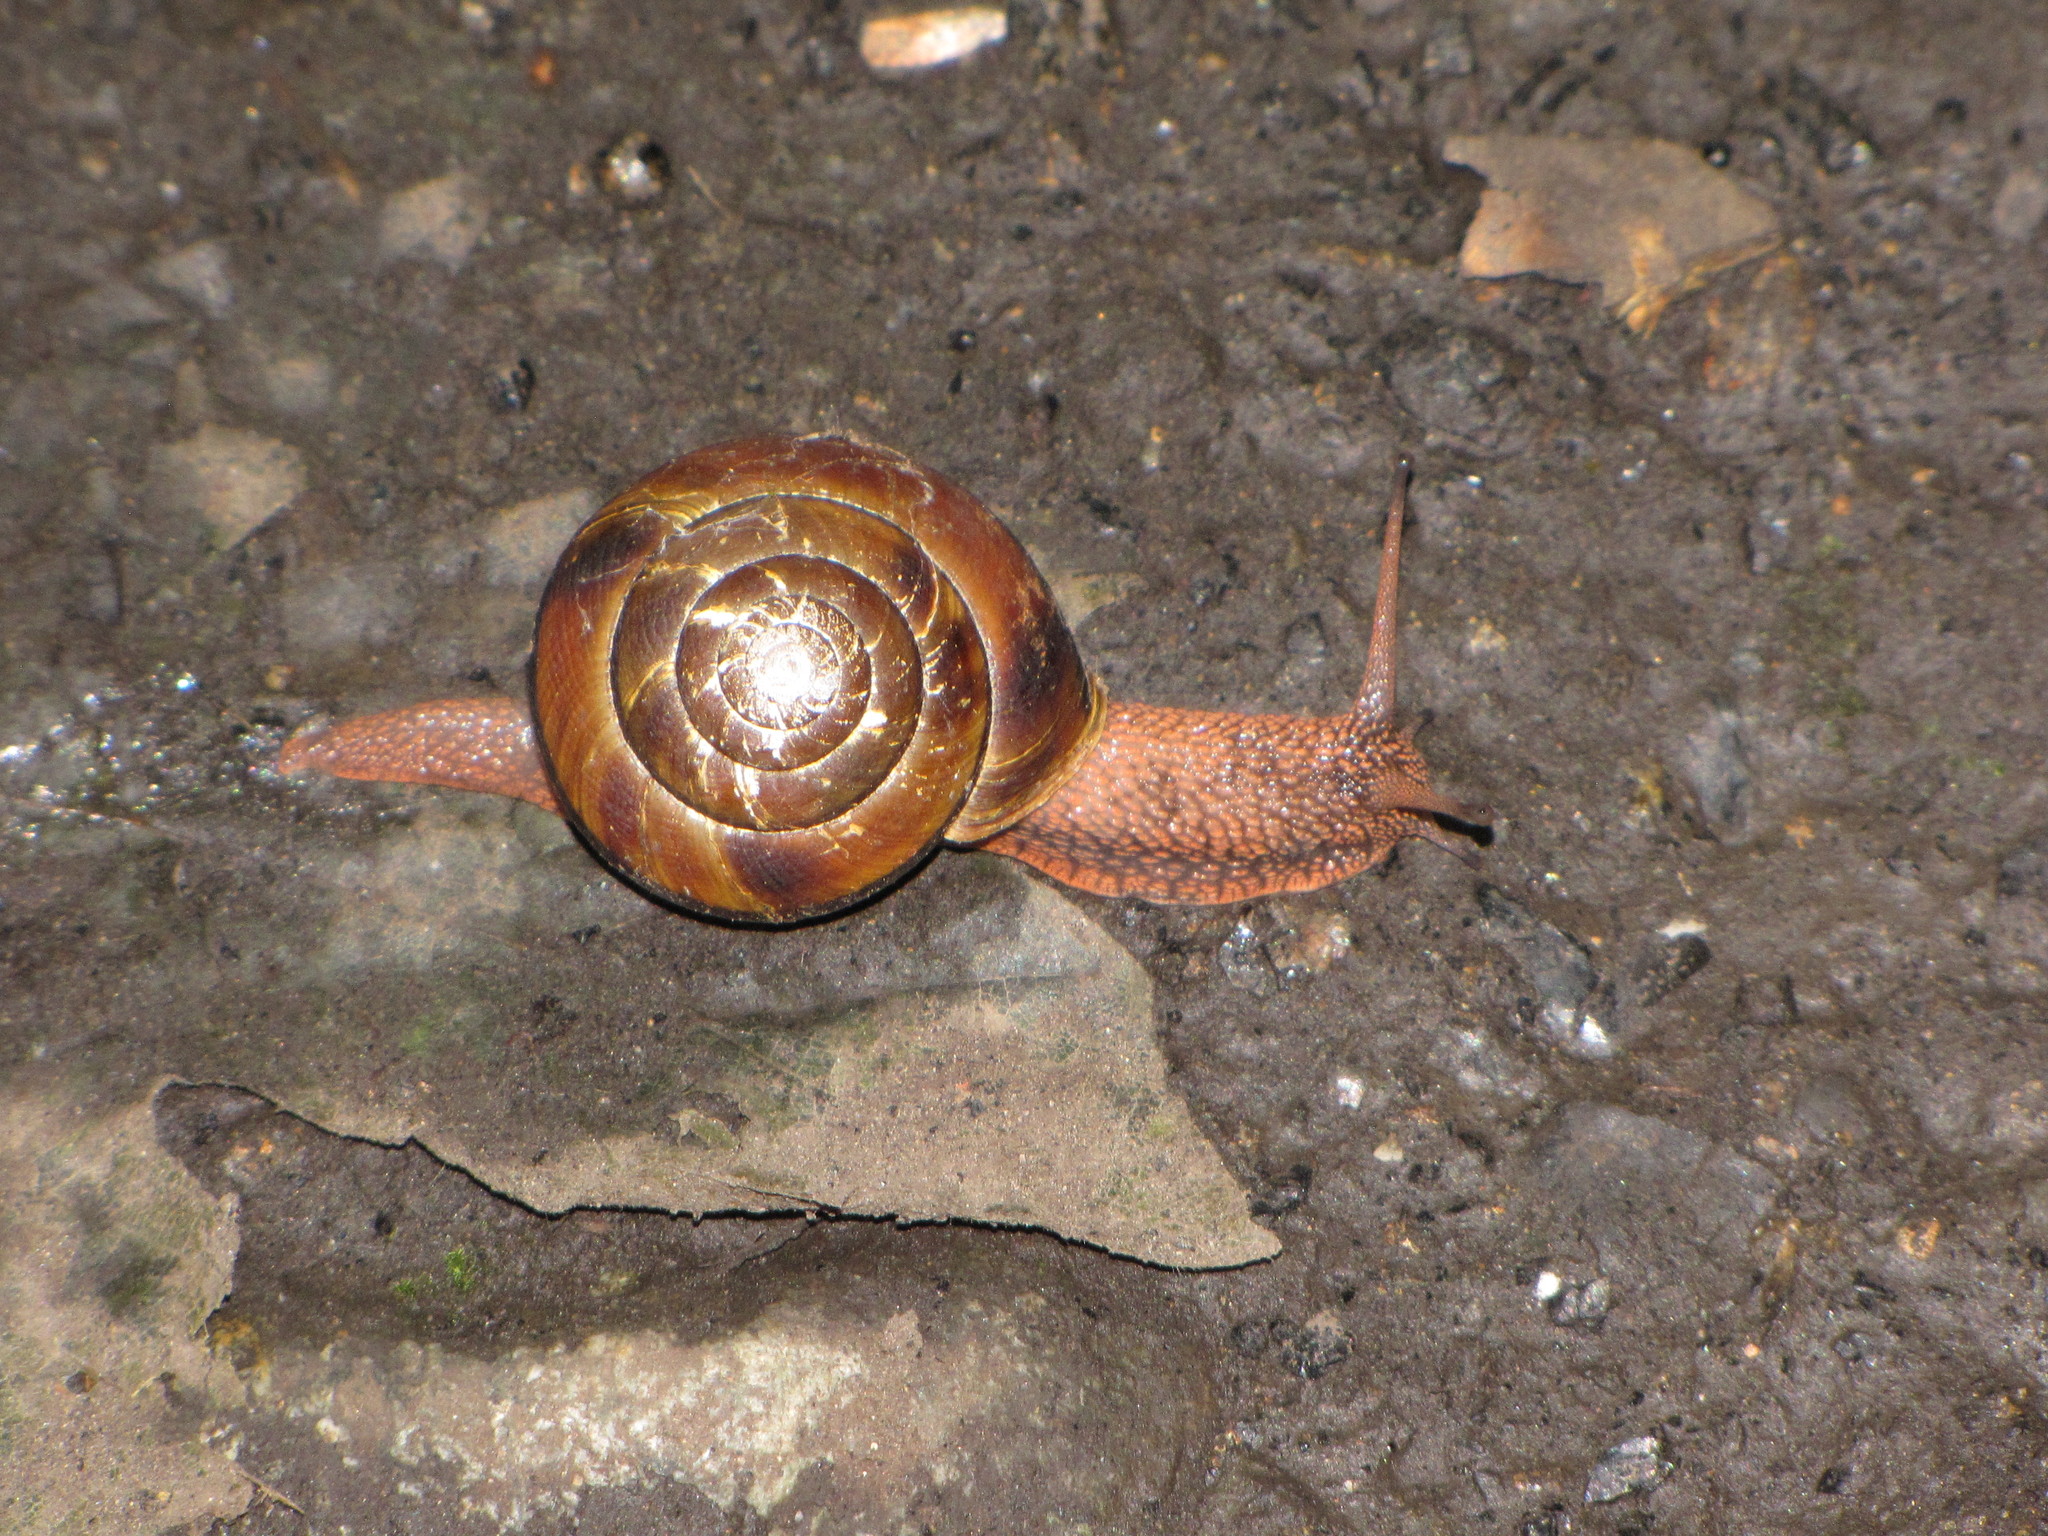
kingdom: Animalia
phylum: Mollusca
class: Gastropoda
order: Stylommatophora
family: Xanthonychidae
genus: Monadenia
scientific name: Monadenia fidelis
